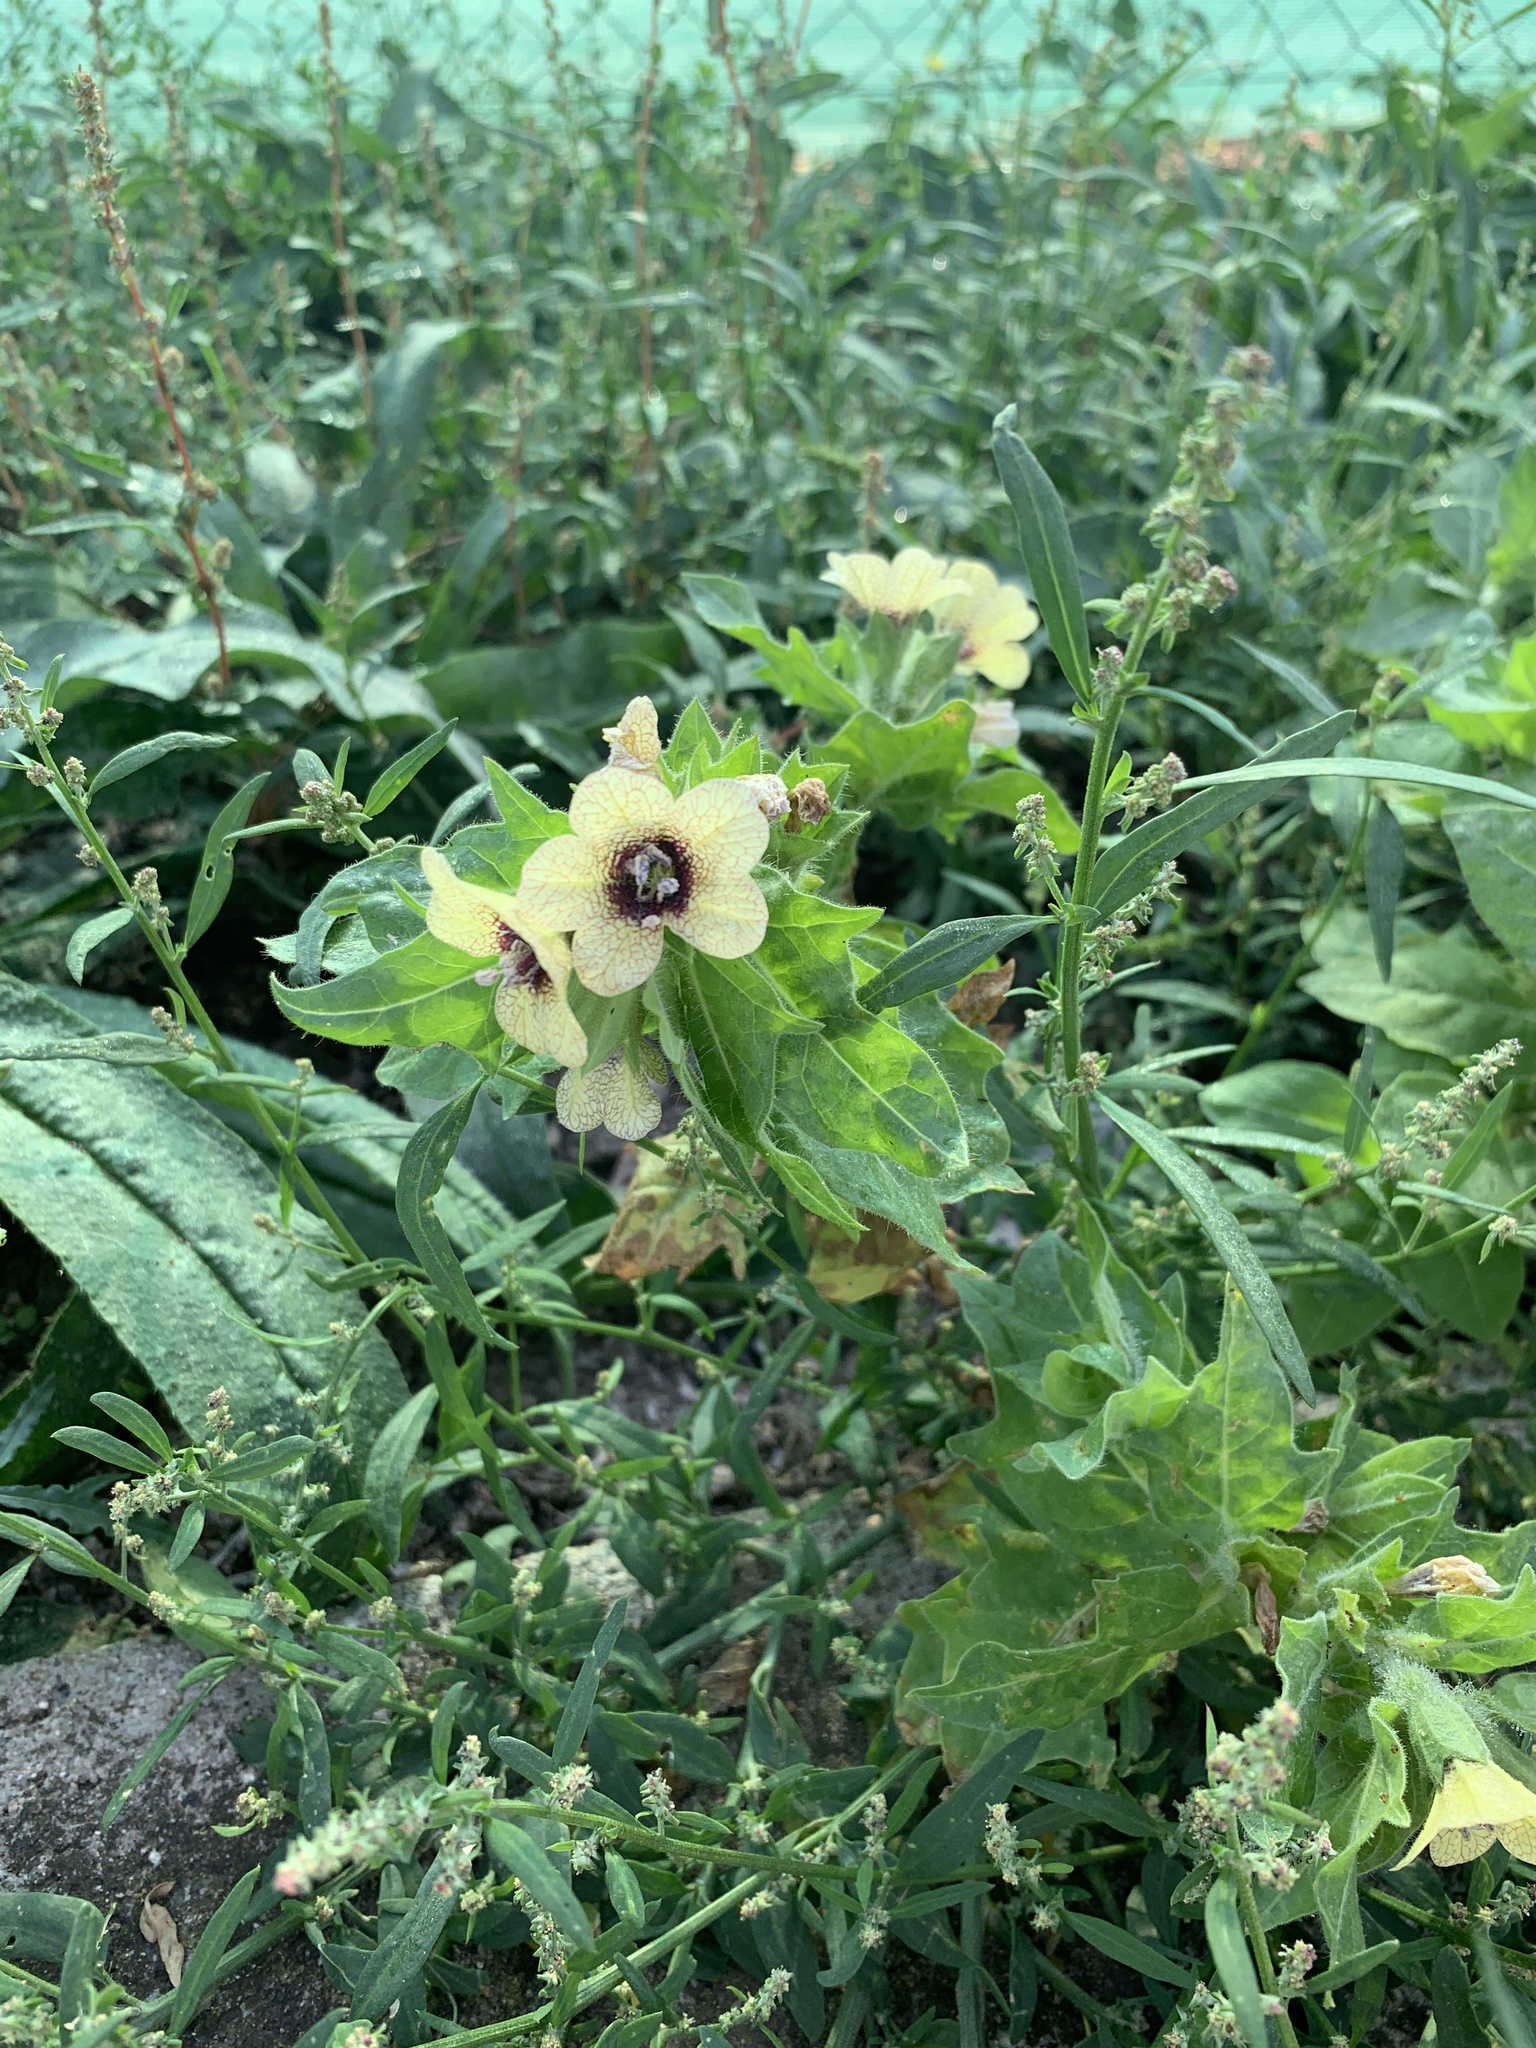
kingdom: Plantae
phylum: Tracheophyta
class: Magnoliopsida
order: Solanales
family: Solanaceae
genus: Hyoscyamus
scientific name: Hyoscyamus niger
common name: Henbane
